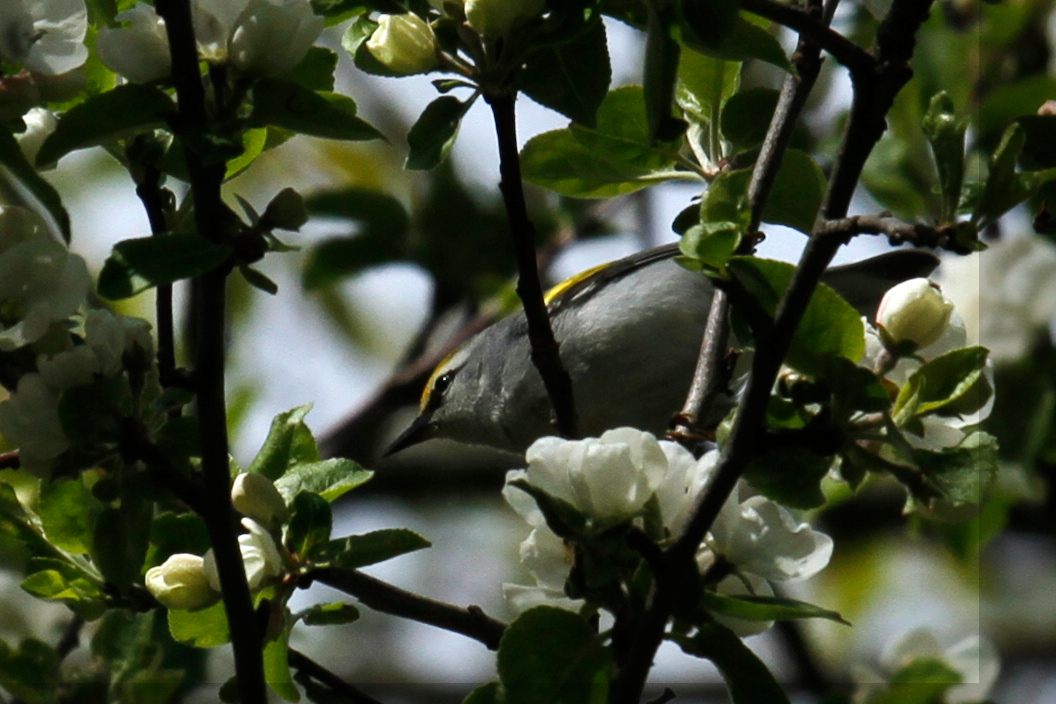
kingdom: Animalia
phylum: Chordata
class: Aves
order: Passeriformes
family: Parulidae
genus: Vermivora
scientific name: Vermivora
